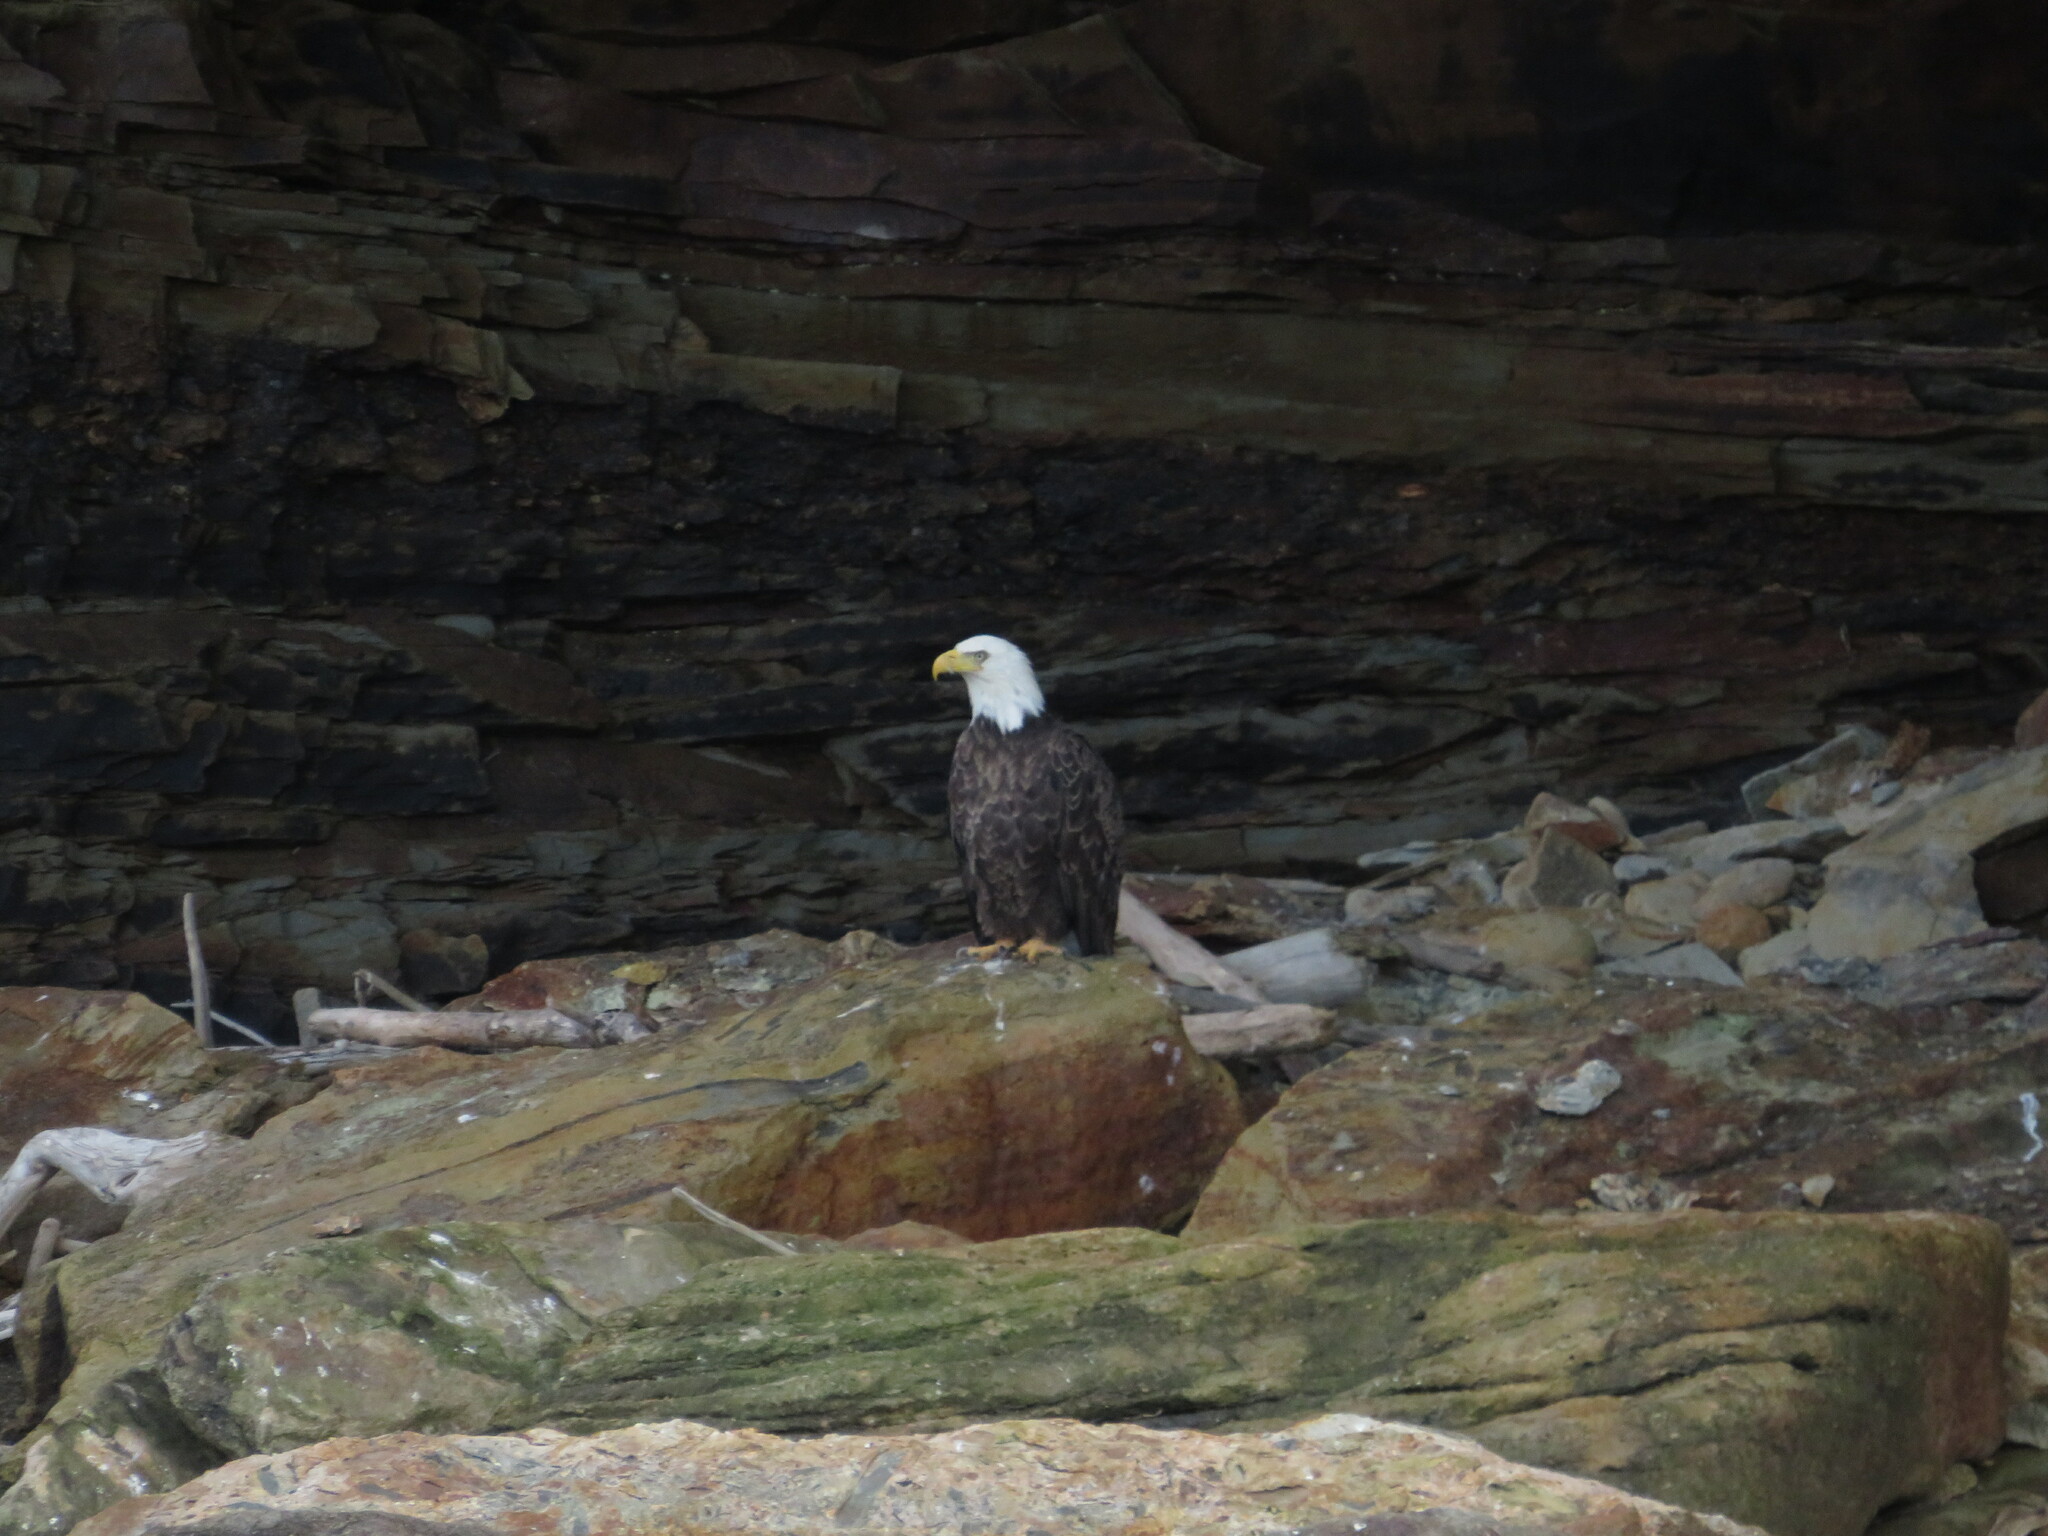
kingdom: Animalia
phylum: Chordata
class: Aves
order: Accipitriformes
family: Accipitridae
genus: Haliaeetus
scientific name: Haliaeetus leucocephalus
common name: Bald eagle
